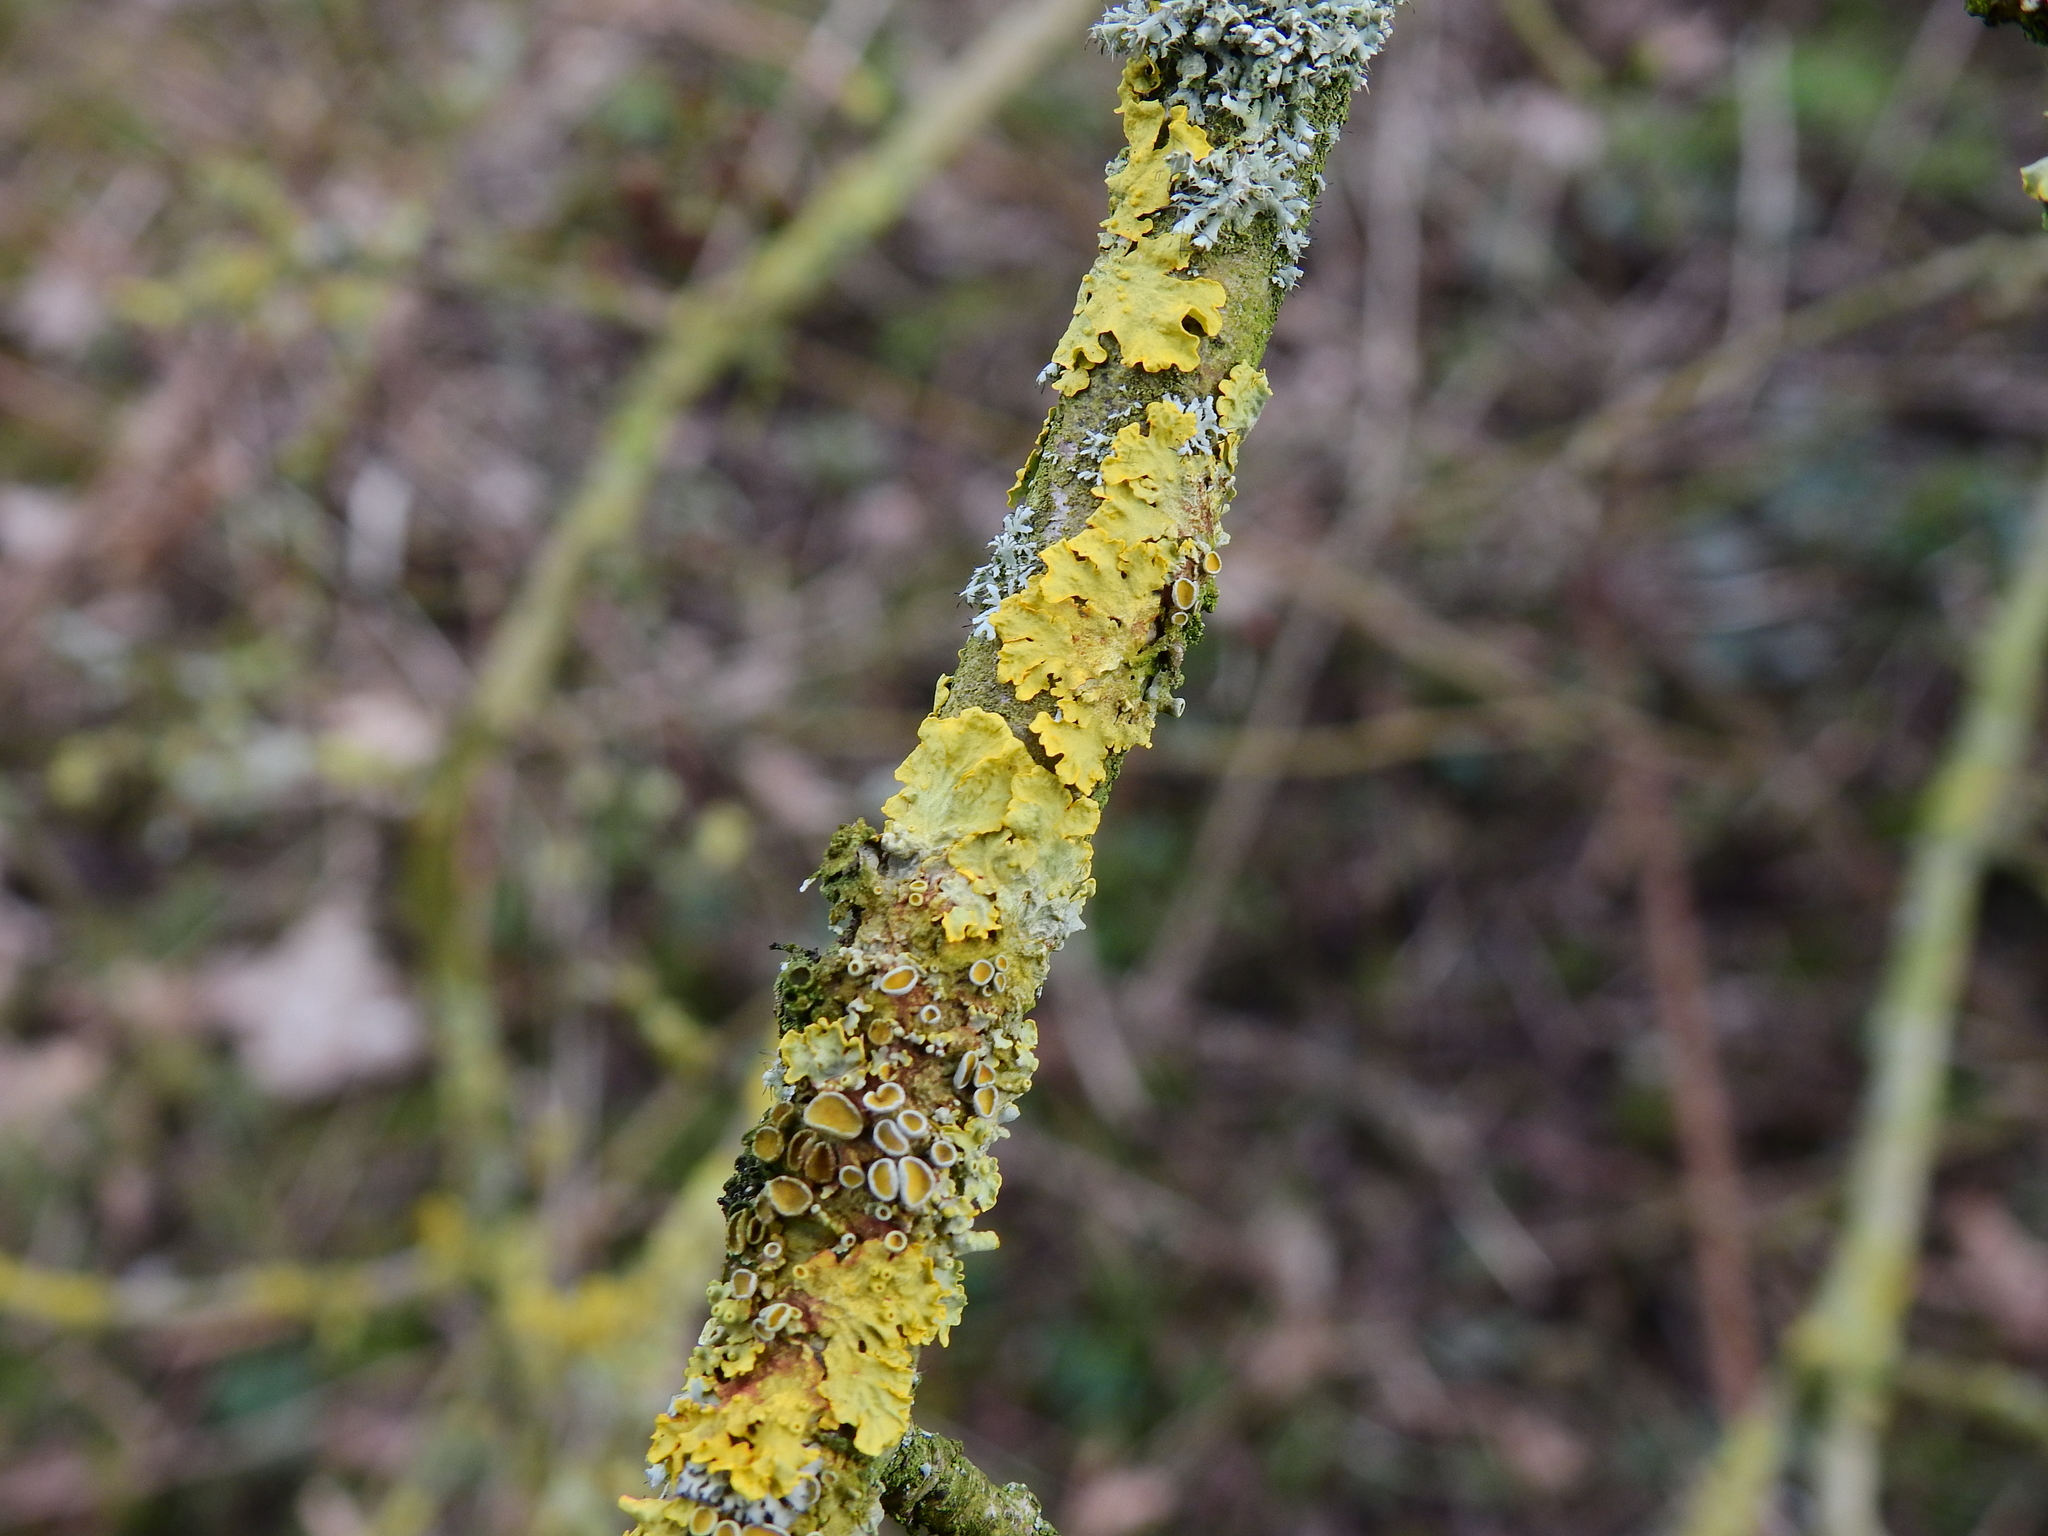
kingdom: Fungi
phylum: Ascomycota
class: Lecanoromycetes
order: Teloschistales
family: Teloschistaceae
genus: Xanthoria
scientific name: Xanthoria parietina
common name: Common orange lichen
